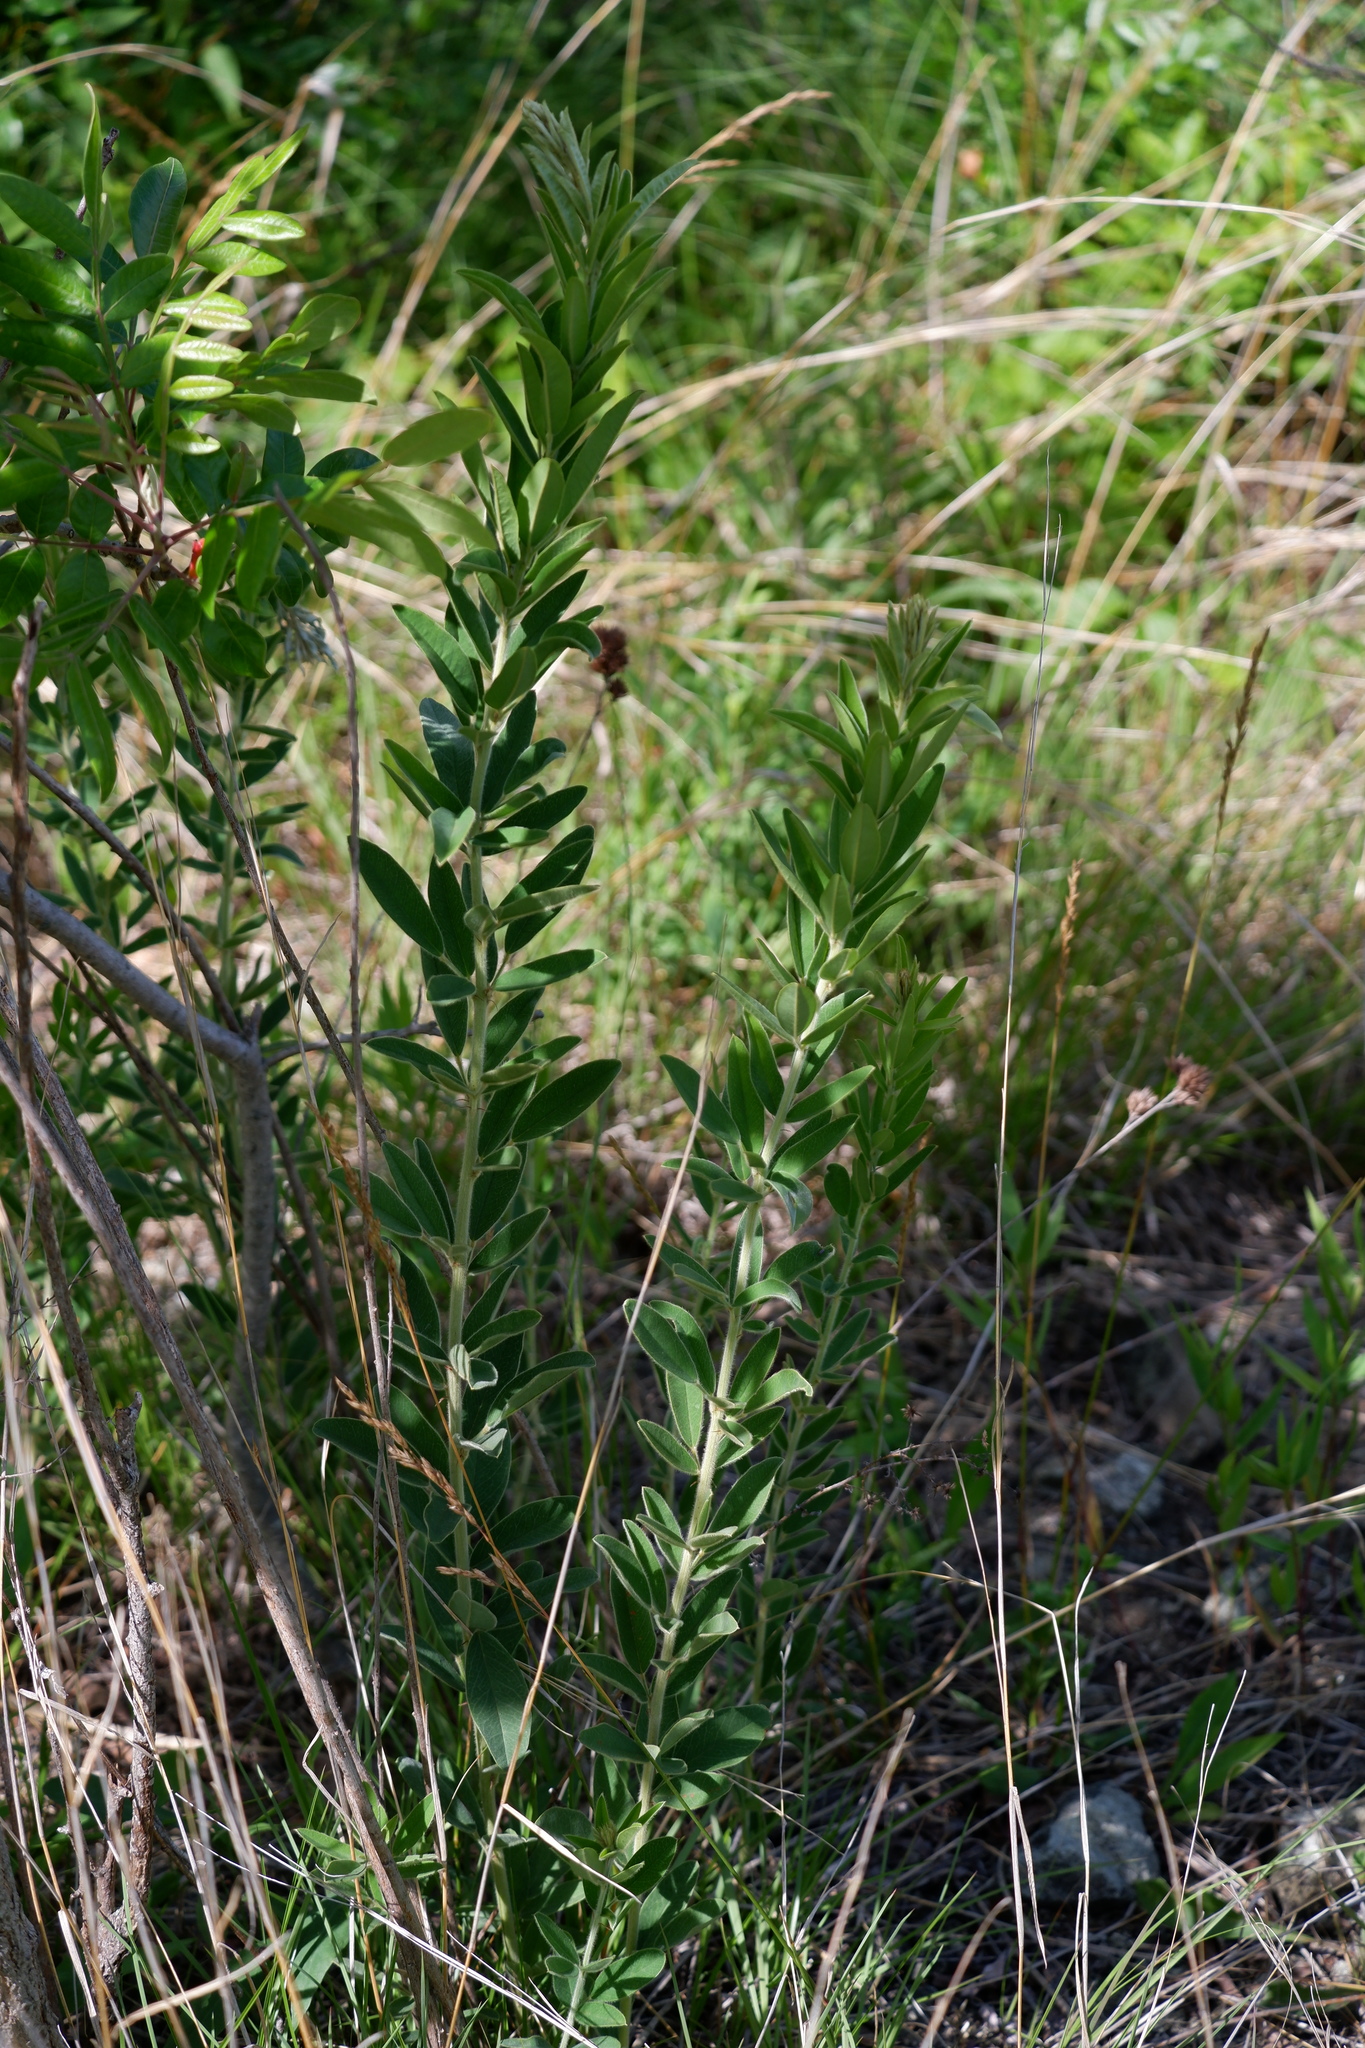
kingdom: Plantae
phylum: Tracheophyta
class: Magnoliopsida
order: Fabales
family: Fabaceae
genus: Lespedeza
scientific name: Lespedeza capitata
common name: Dusty clover
